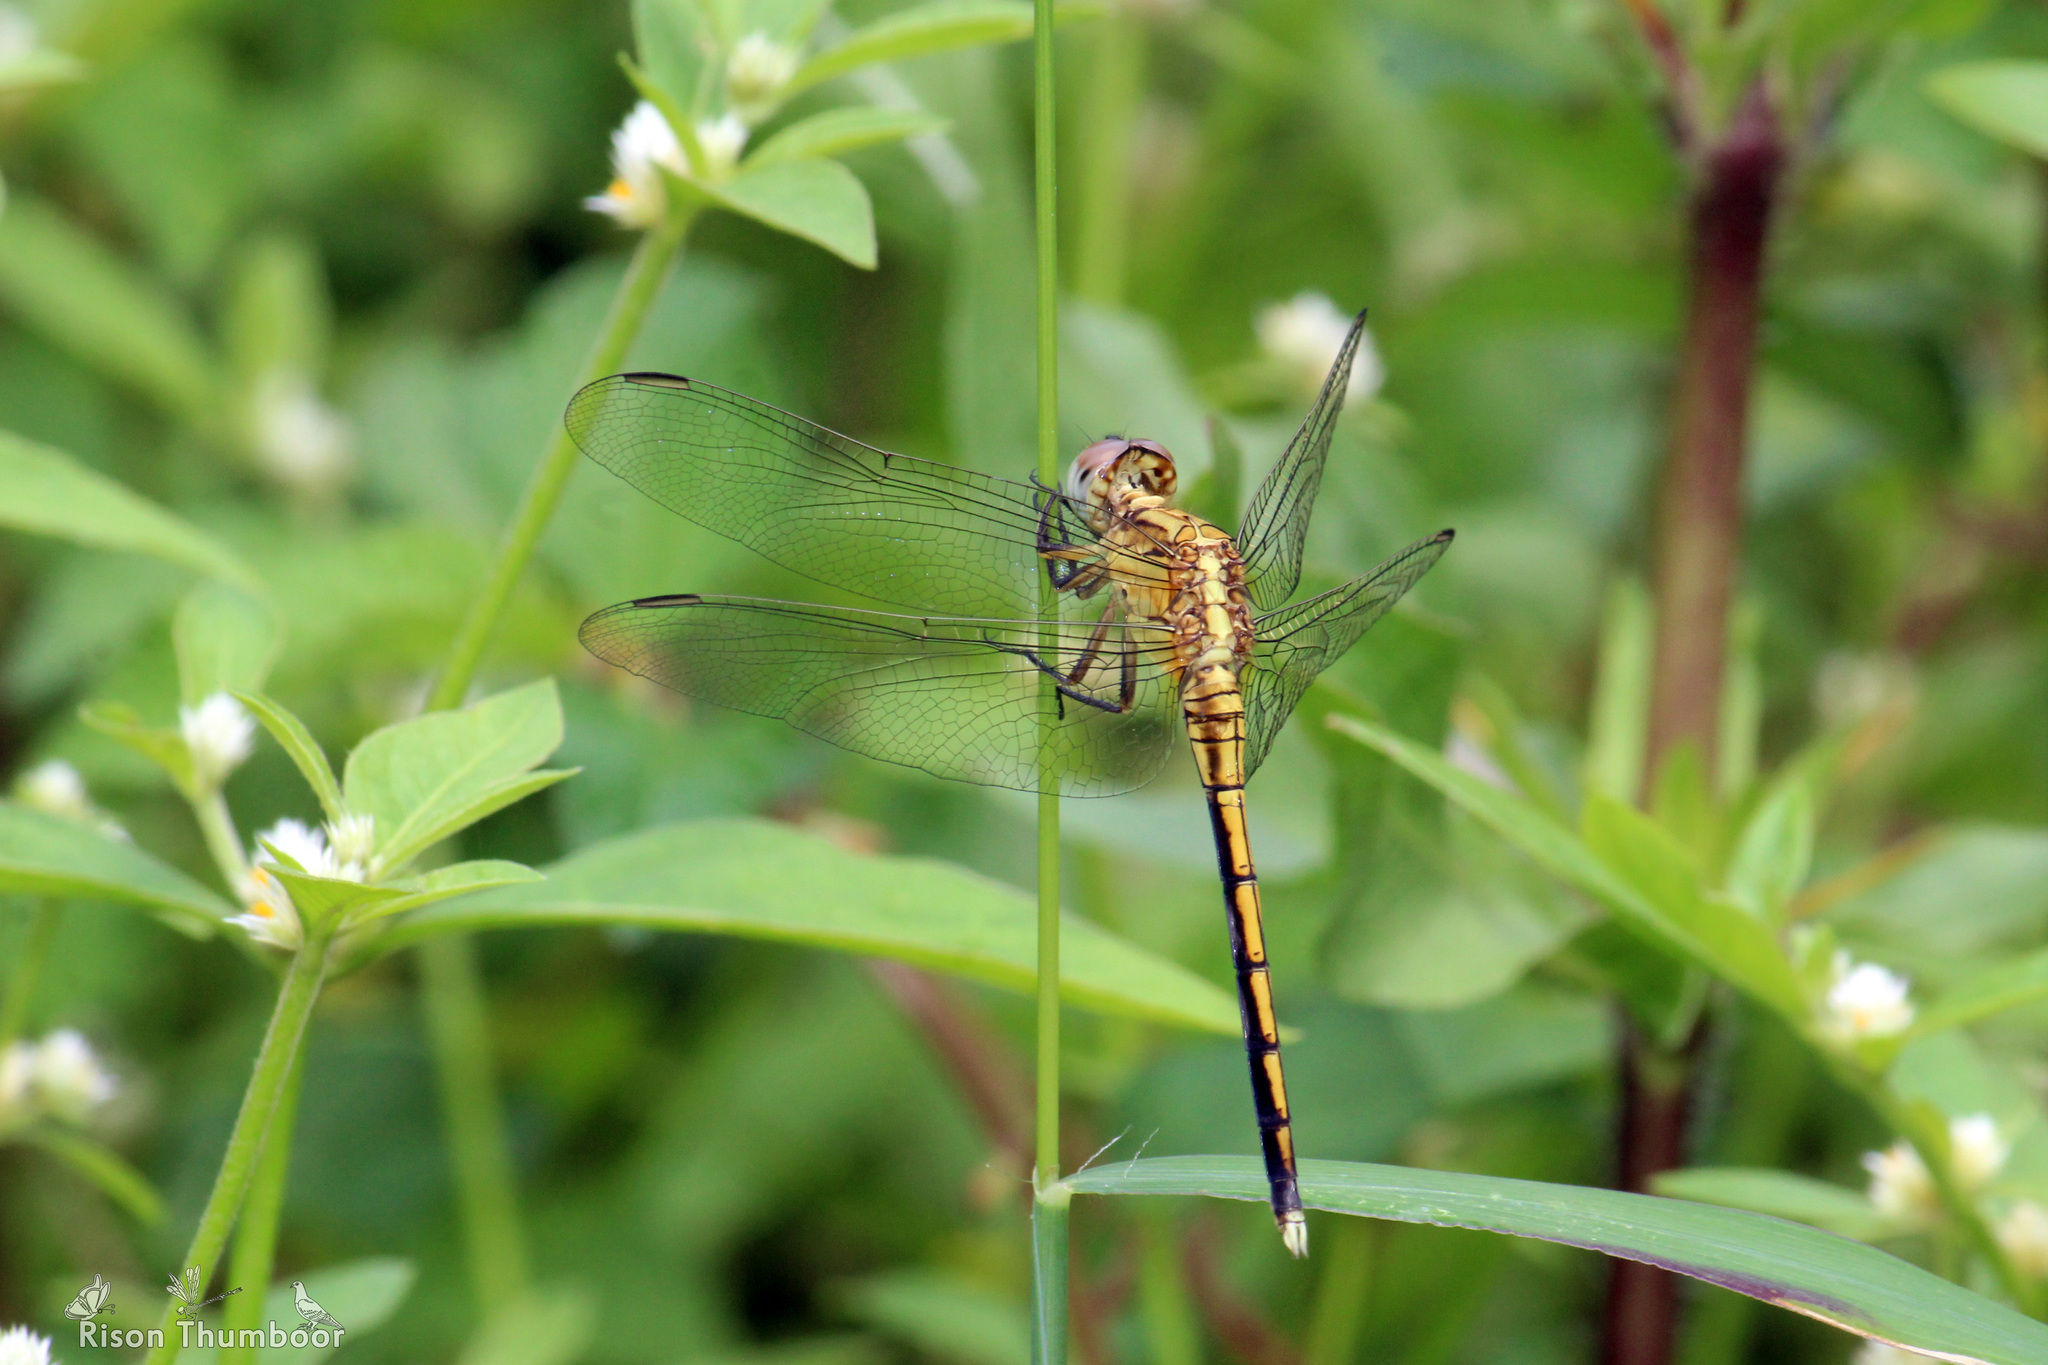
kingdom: Animalia
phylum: Arthropoda
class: Insecta
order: Odonata
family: Libellulidae
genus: Orthetrum
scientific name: Orthetrum luzonicum
